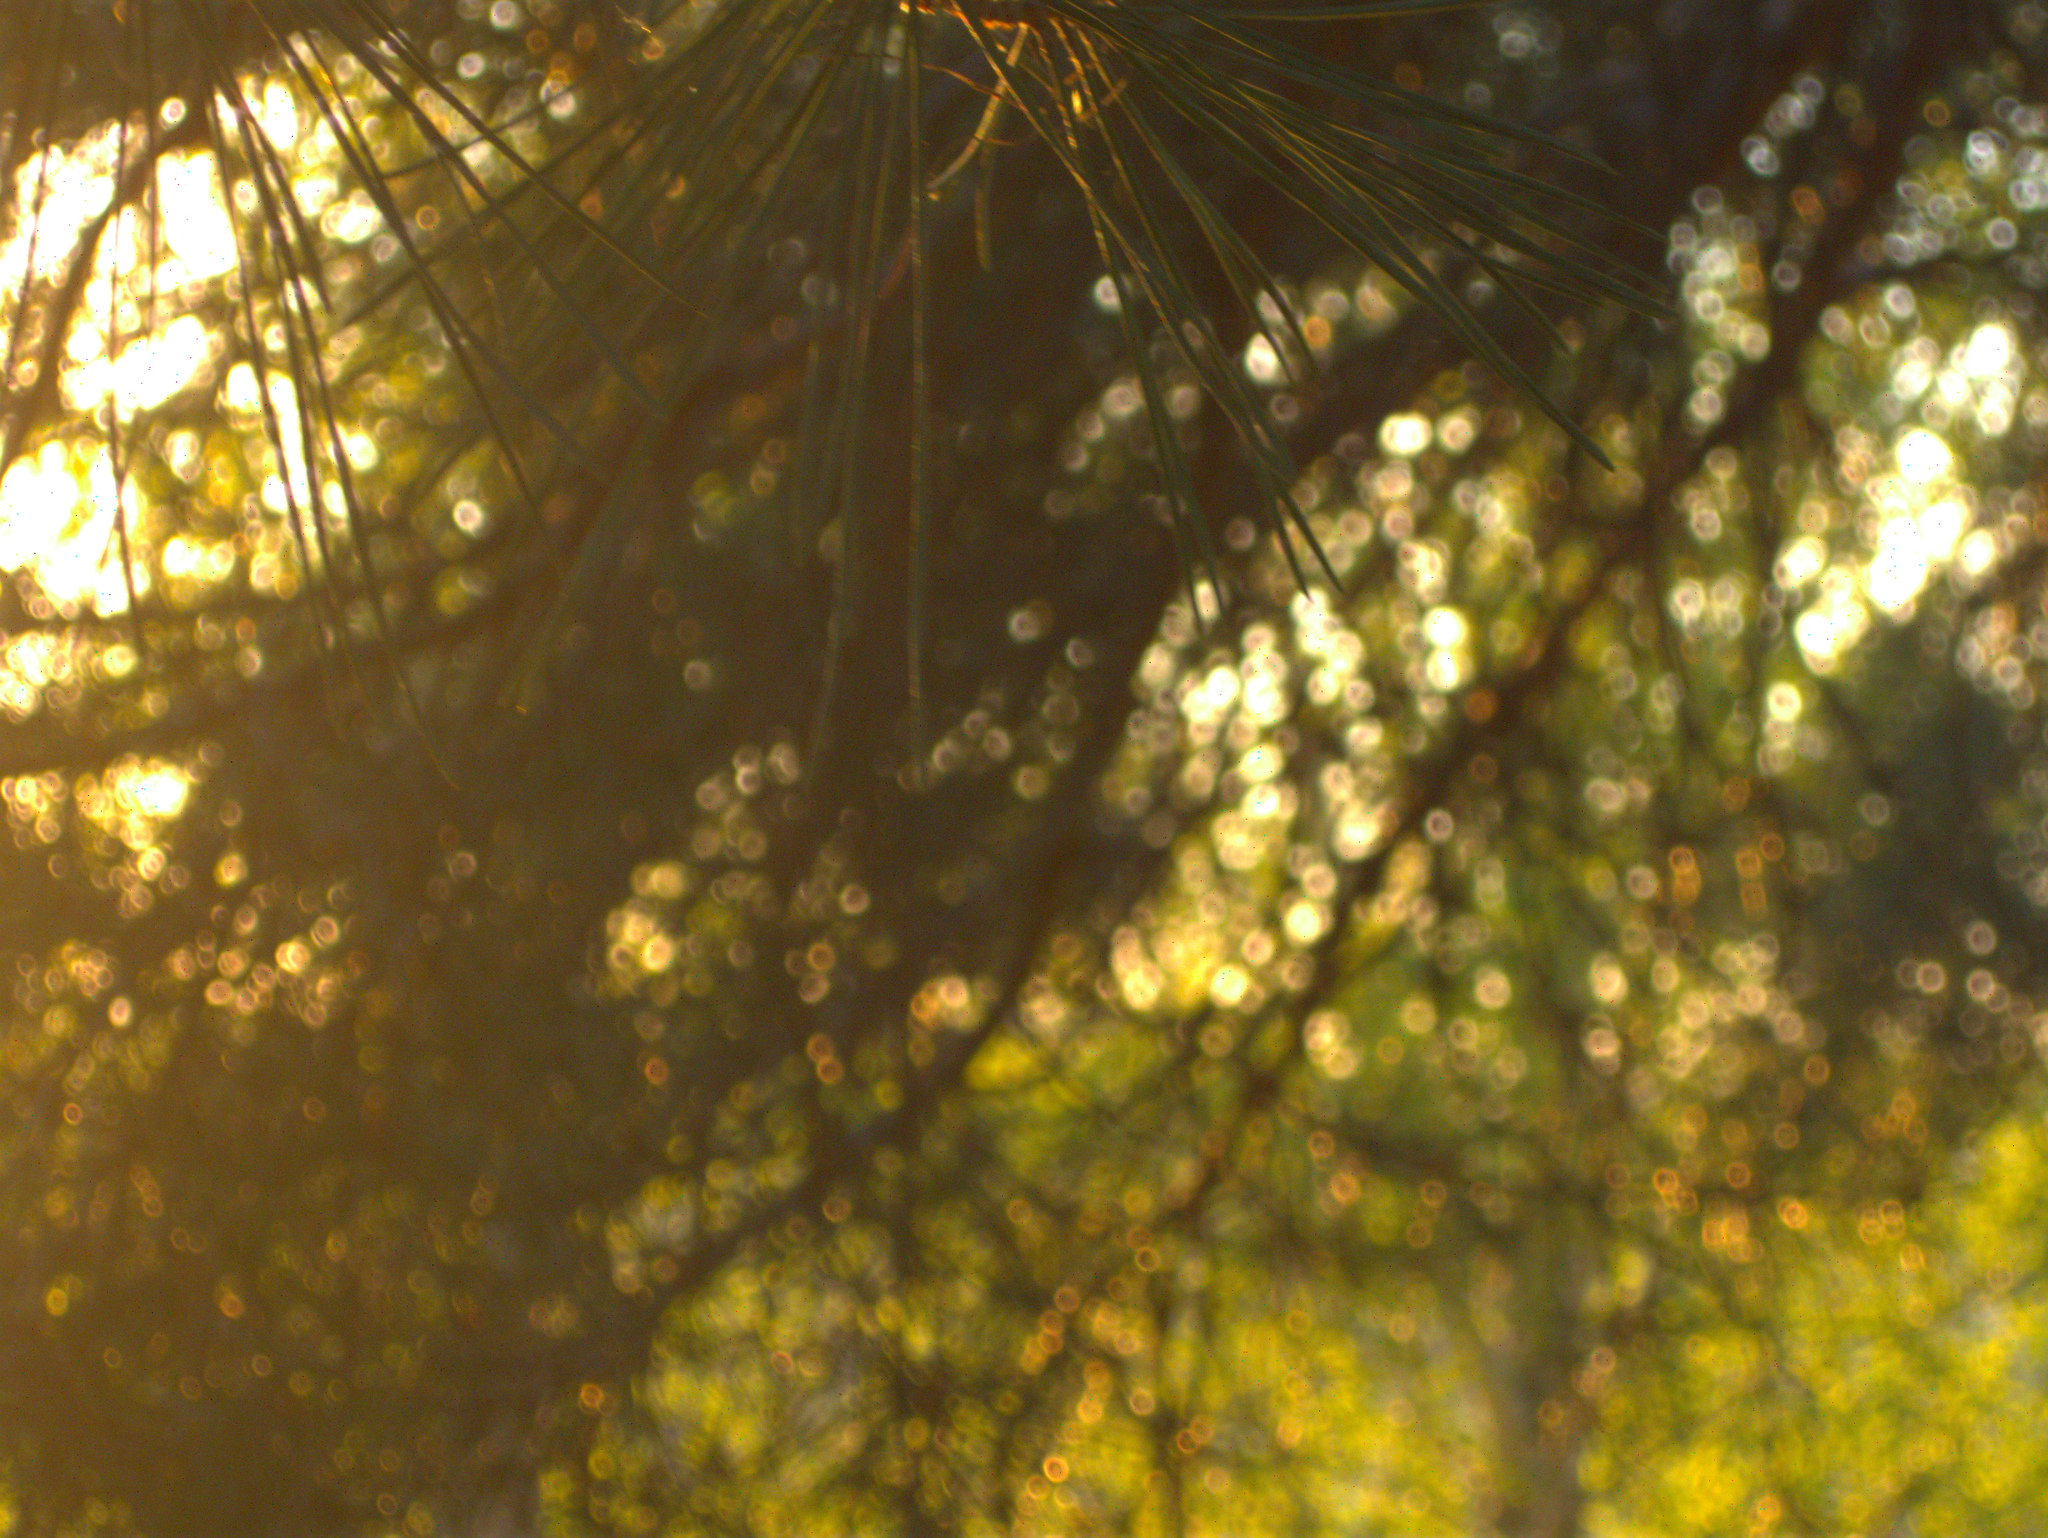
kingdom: Plantae
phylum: Tracheophyta
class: Pinopsida
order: Pinales
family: Pinaceae
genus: Pinus
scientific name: Pinus sylvestris
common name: Scots pine
